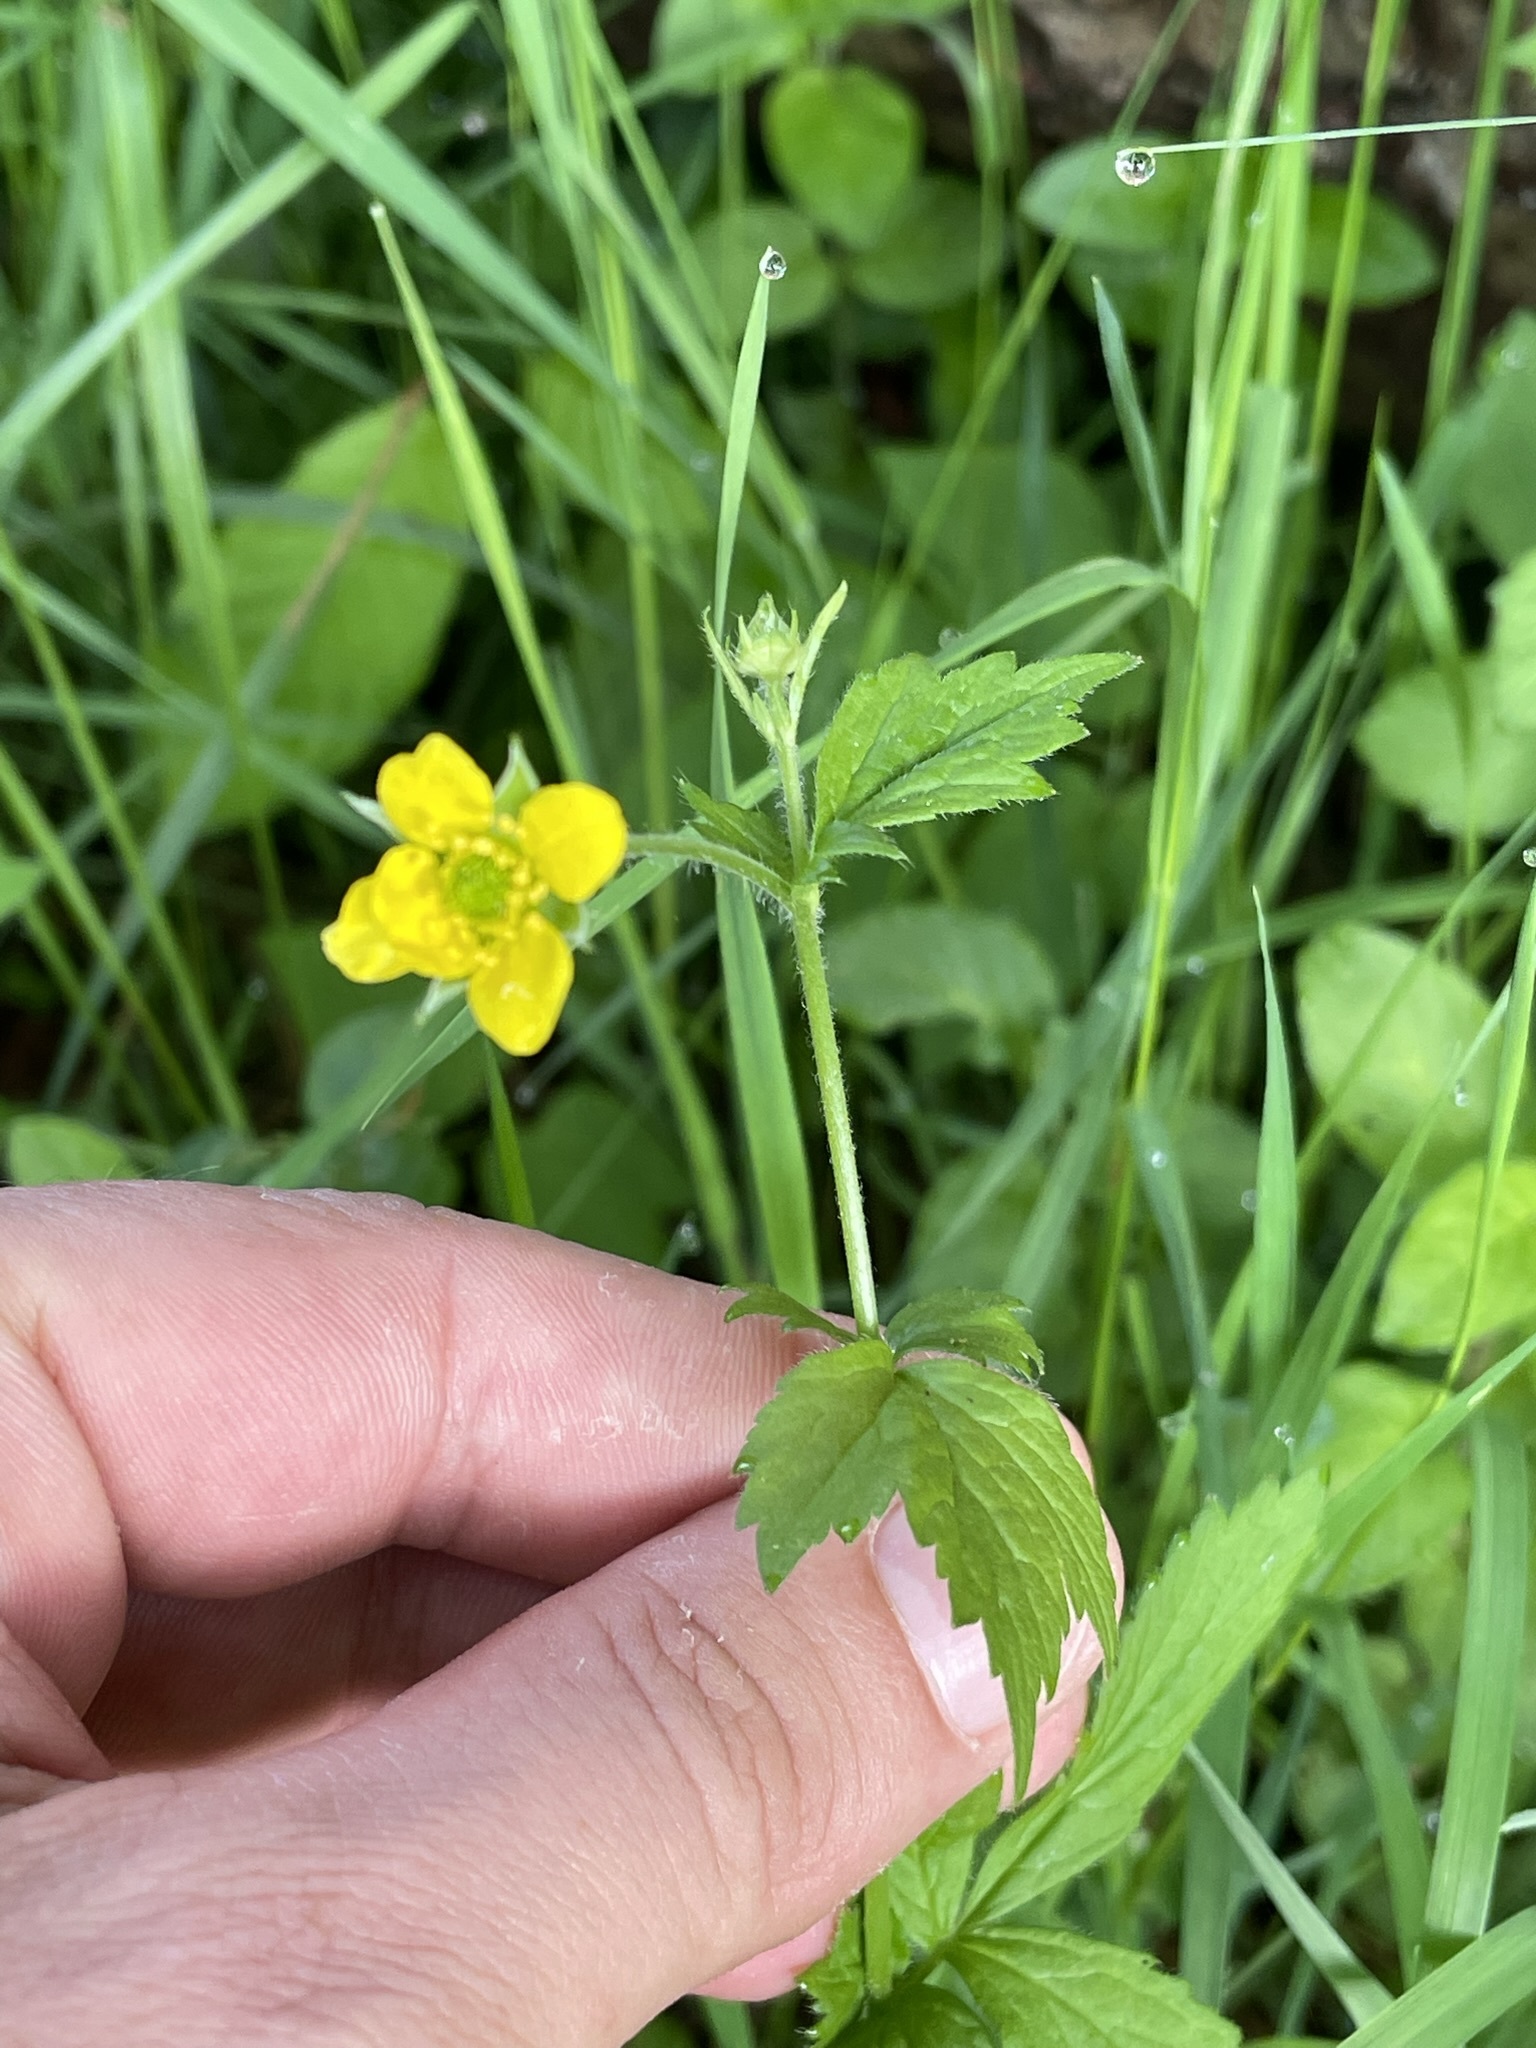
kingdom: Plantae
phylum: Tracheophyta
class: Magnoliopsida
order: Rosales
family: Rosaceae
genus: Geum
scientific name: Geum urbanum
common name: Wood avens
